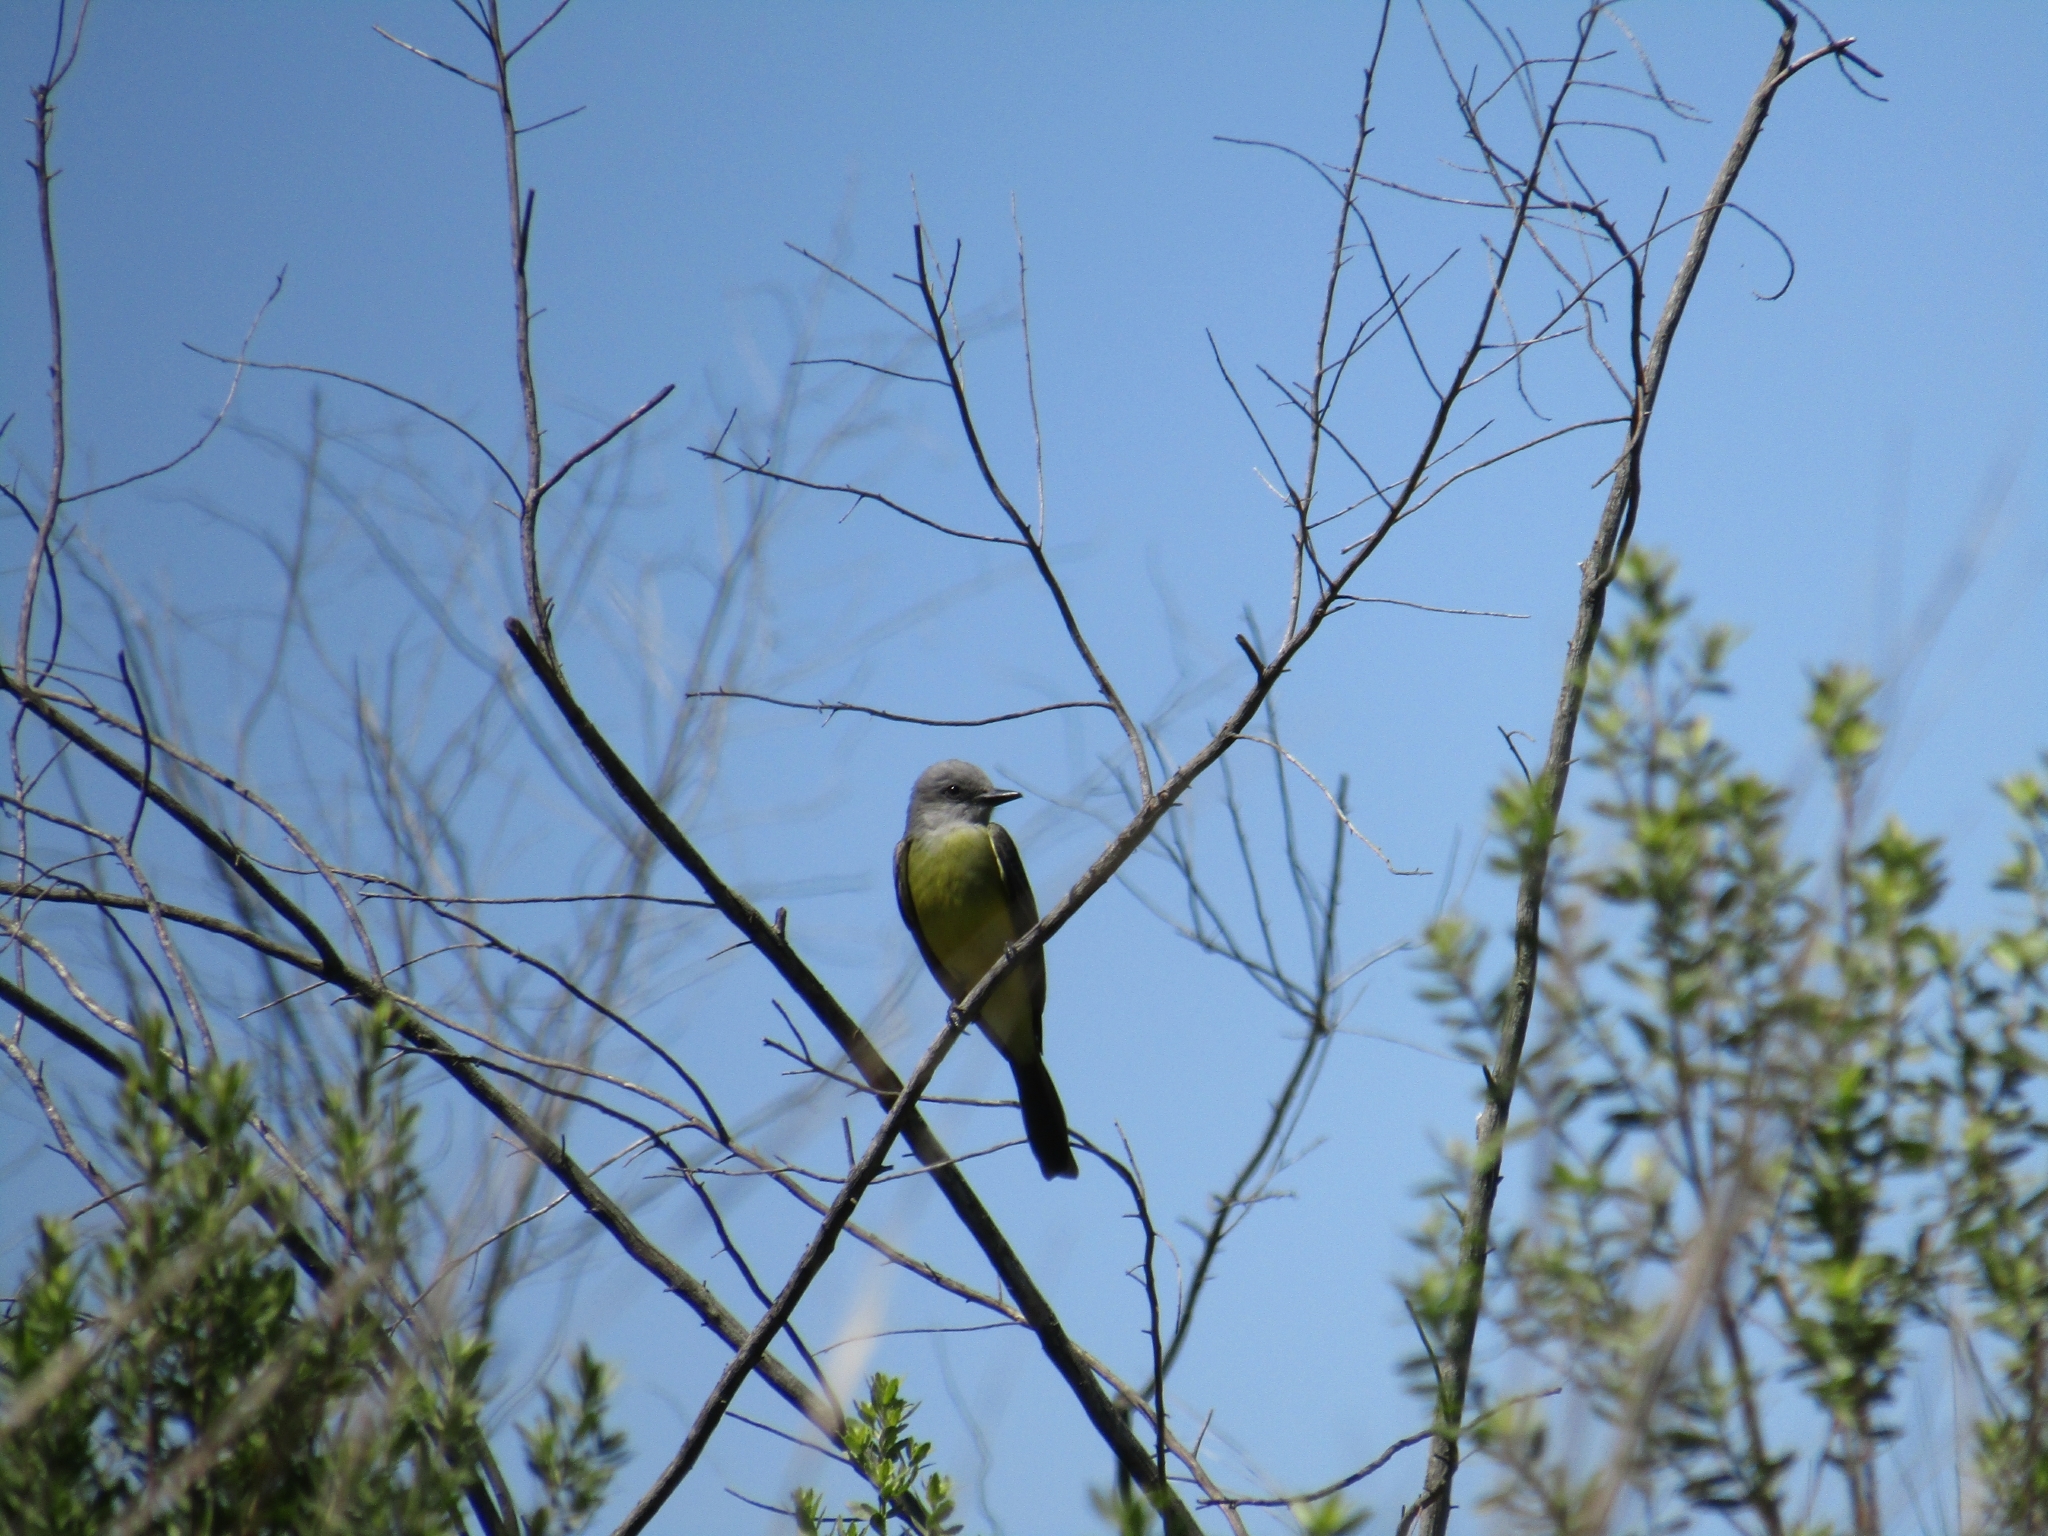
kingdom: Animalia
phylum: Chordata
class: Aves
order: Passeriformes
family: Tyrannidae
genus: Tyrannus
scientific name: Tyrannus melancholicus
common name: Tropical kingbird
